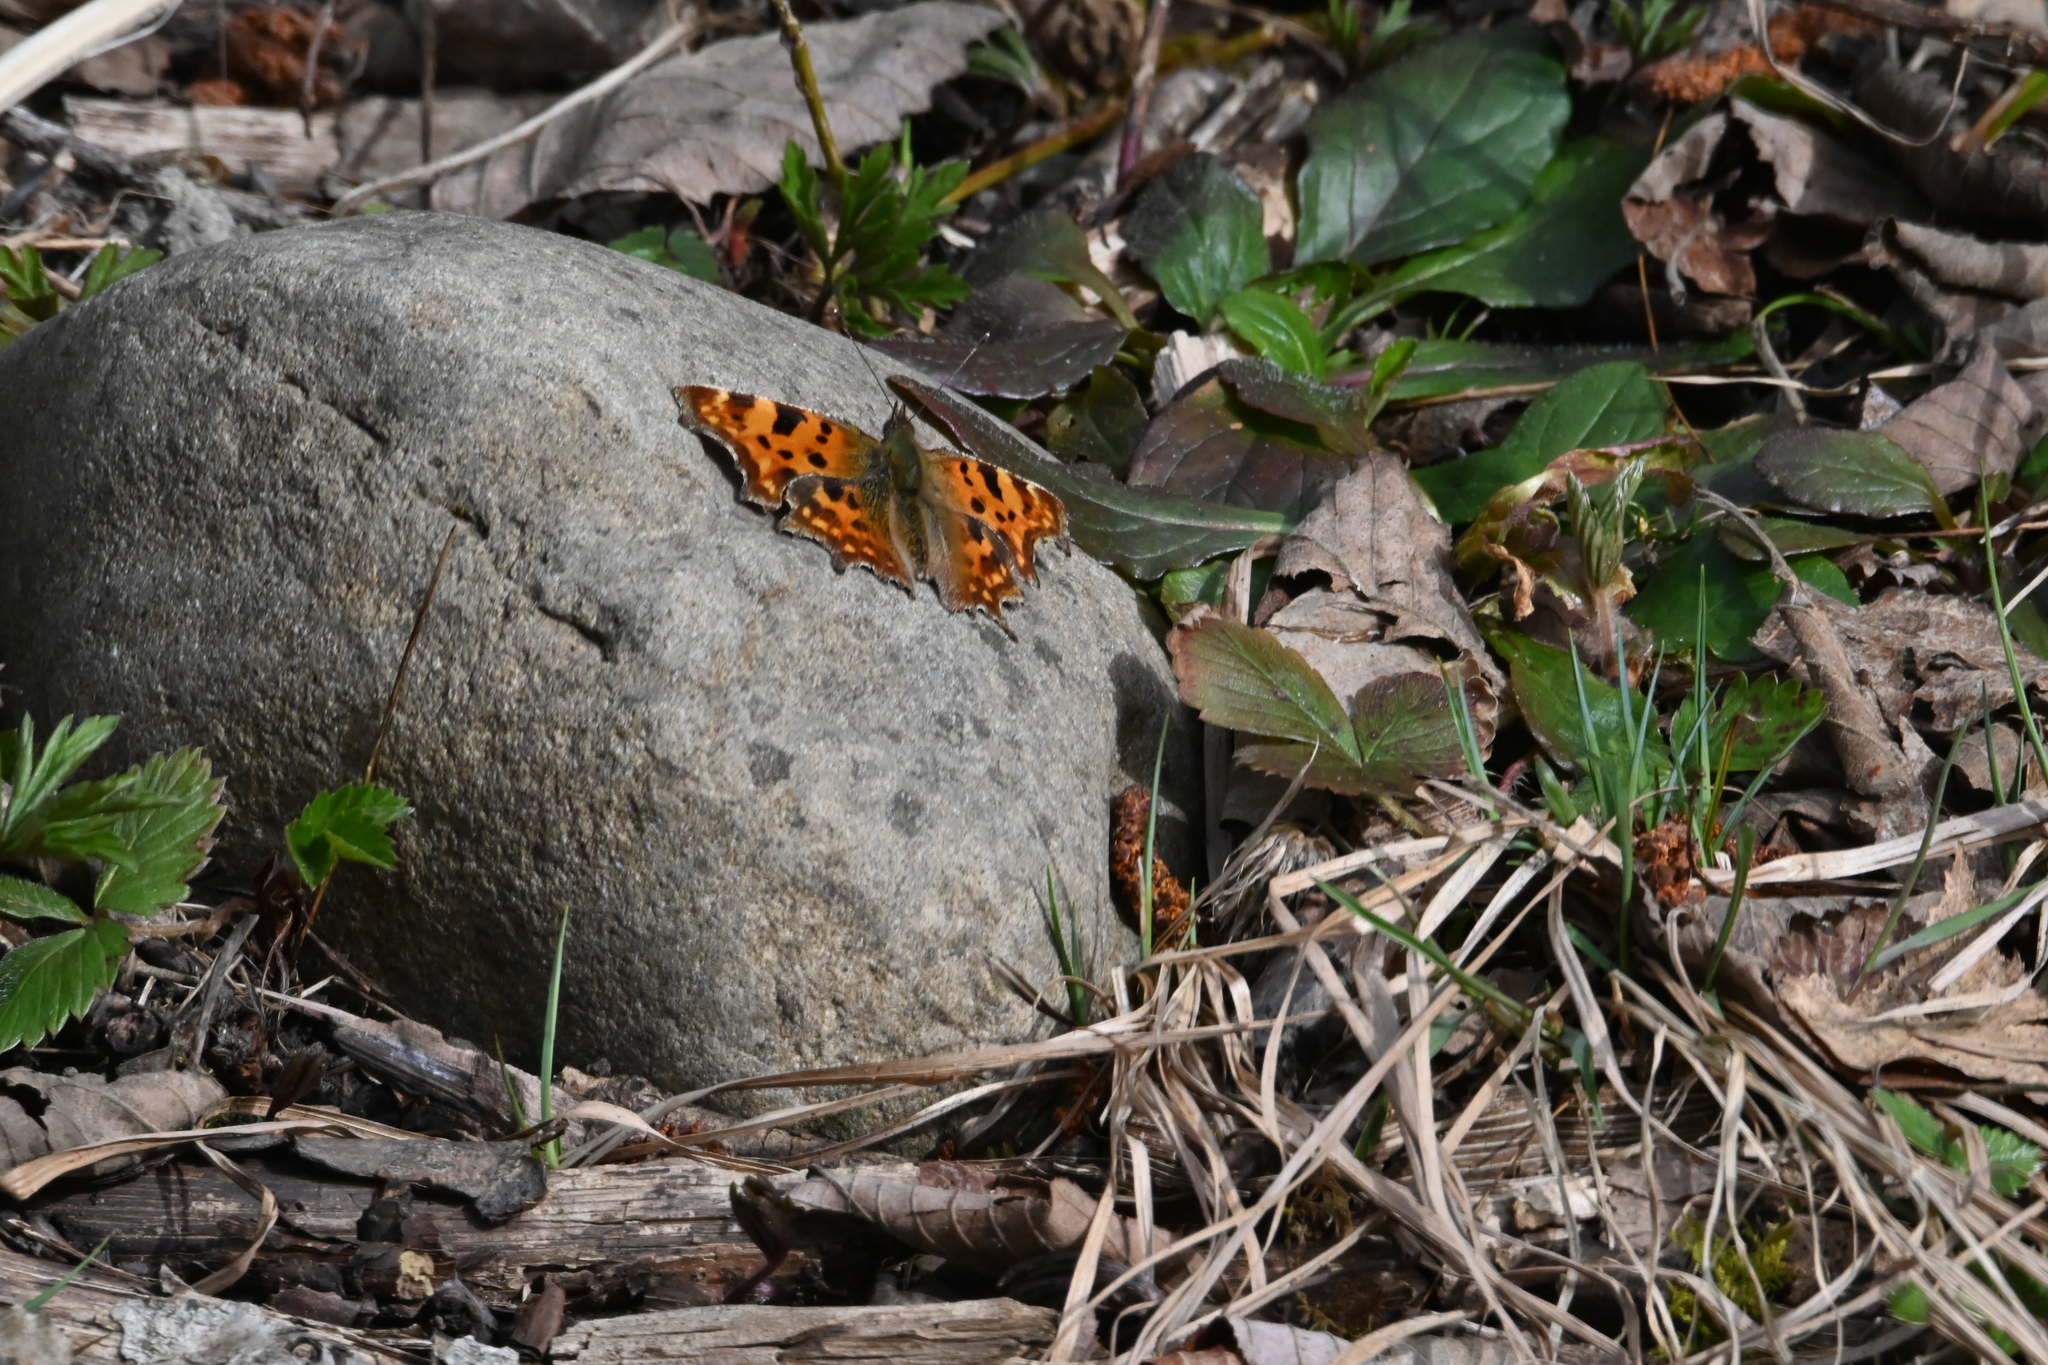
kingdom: Animalia
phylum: Arthropoda
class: Insecta
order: Lepidoptera
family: Nymphalidae
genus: Polygonia
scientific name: Polygonia c-album
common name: Comma
